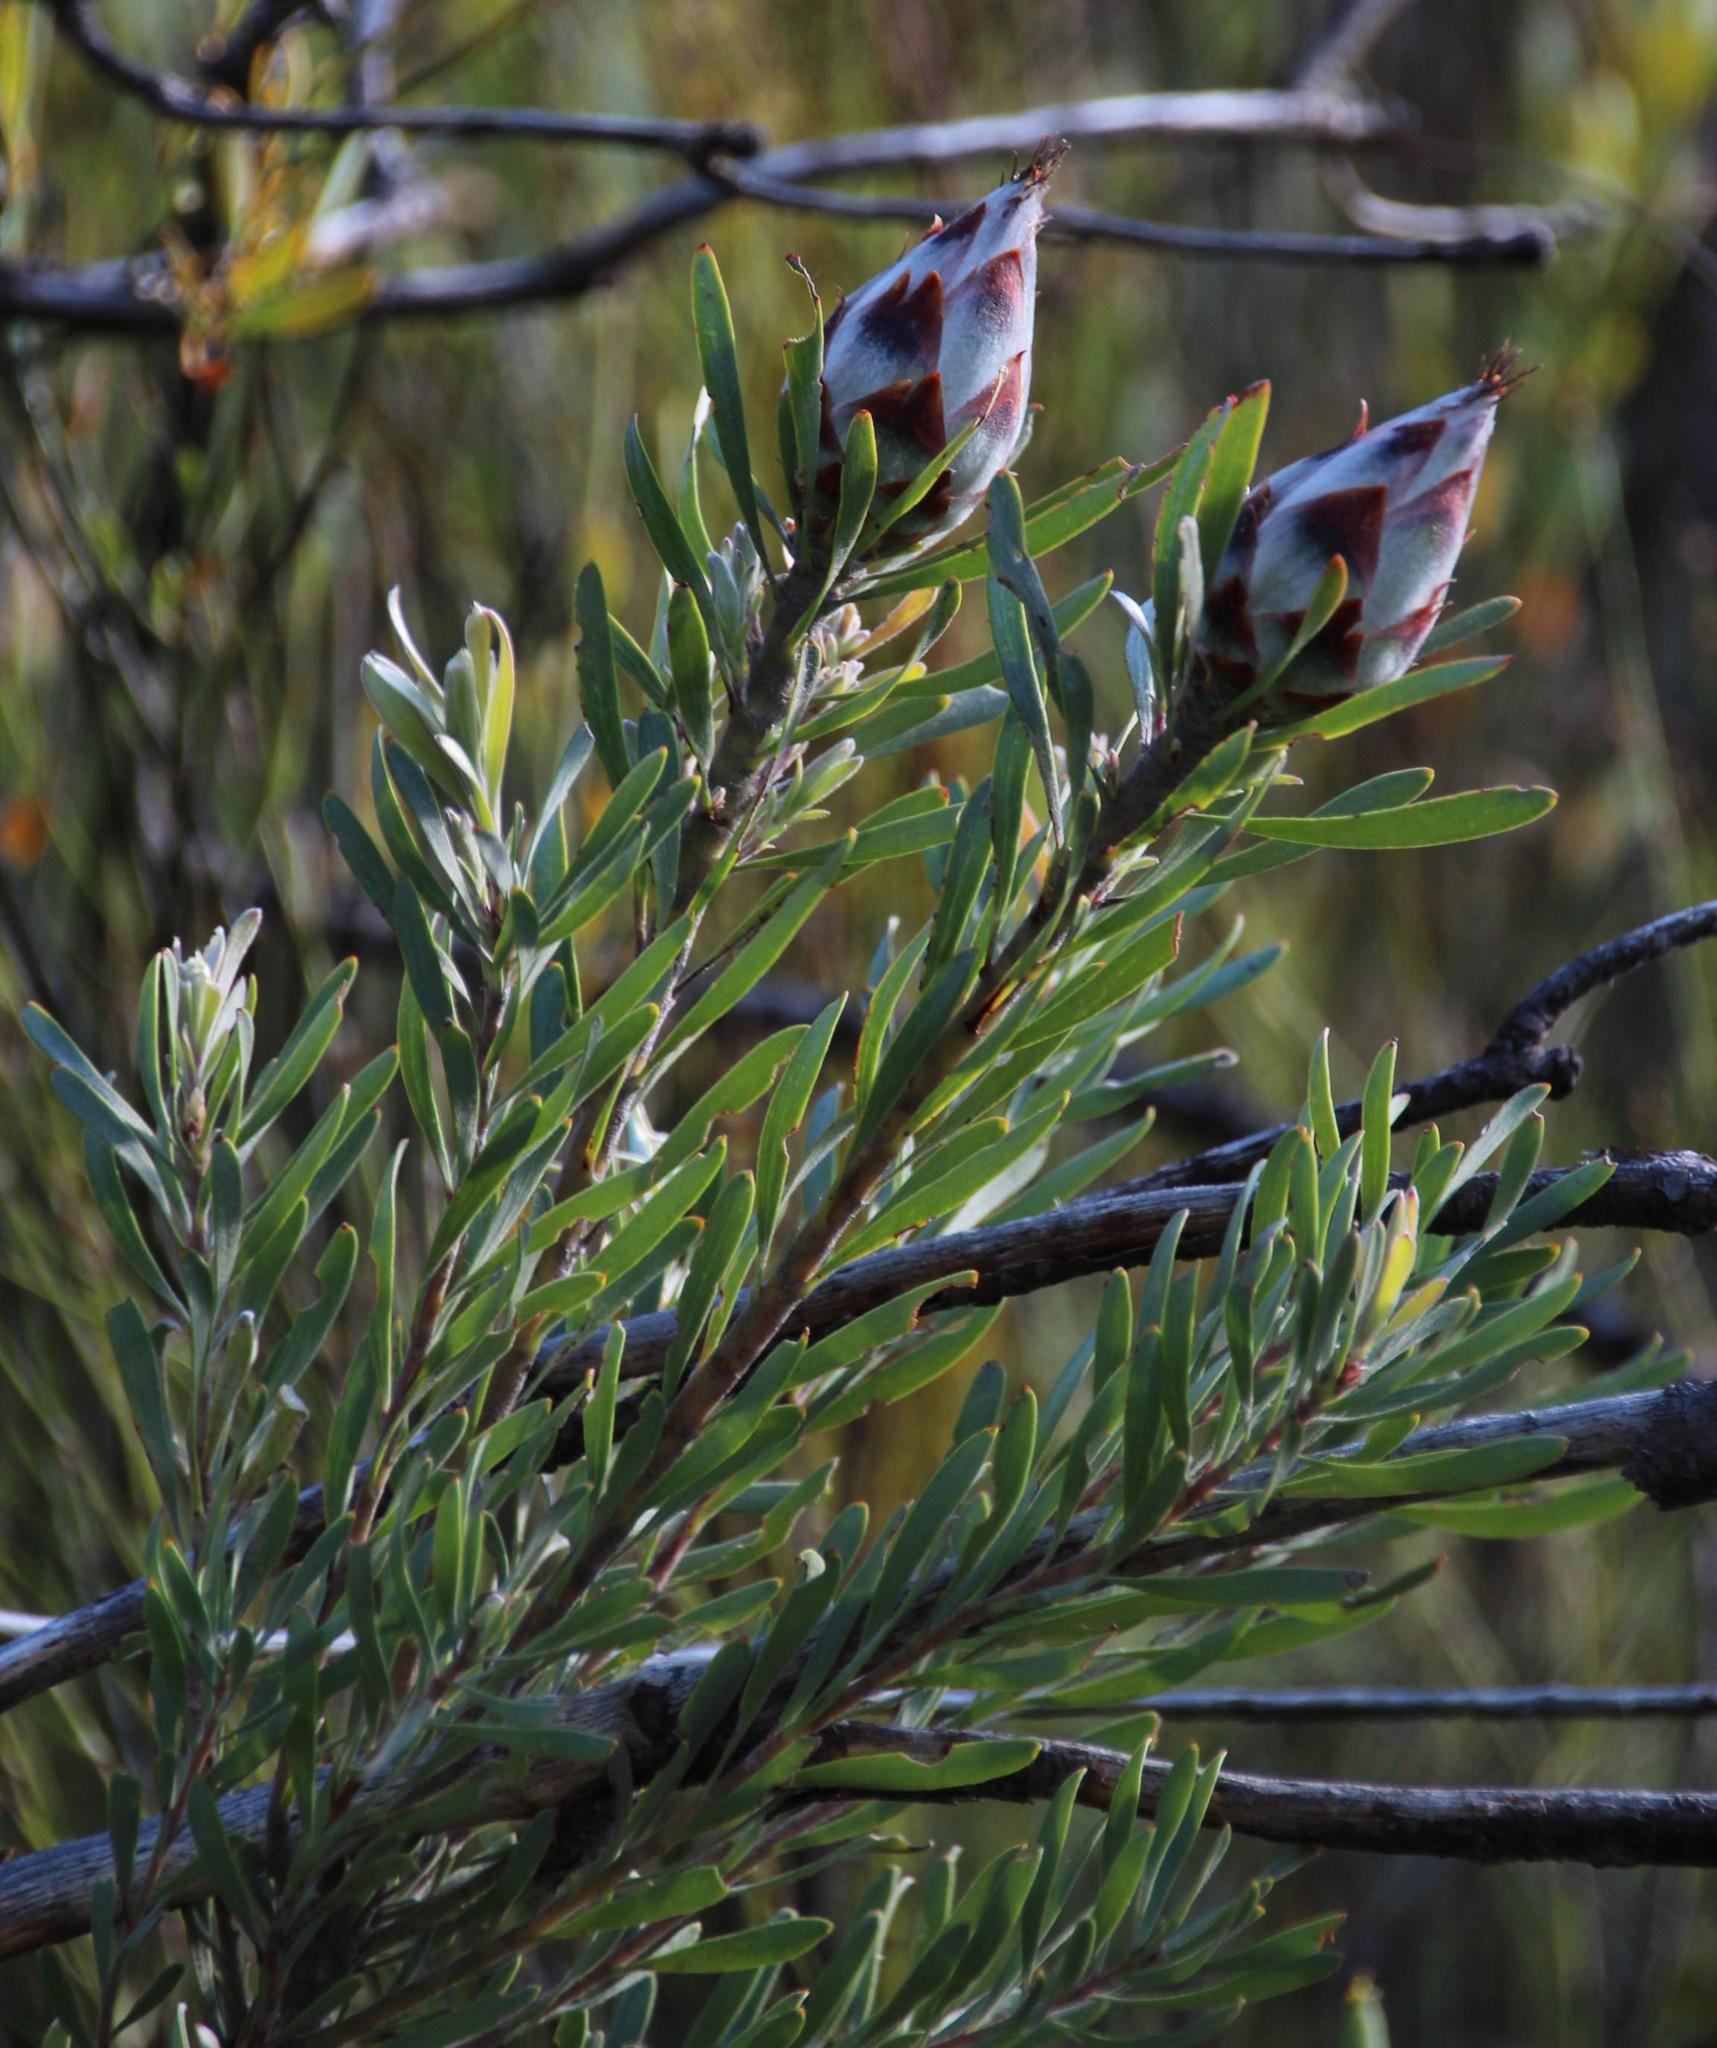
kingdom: Plantae
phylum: Tracheophyta
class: Magnoliopsida
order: Proteales
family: Proteaceae
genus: Leucadendron
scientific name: Leucadendron rubrum
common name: Spinning top
